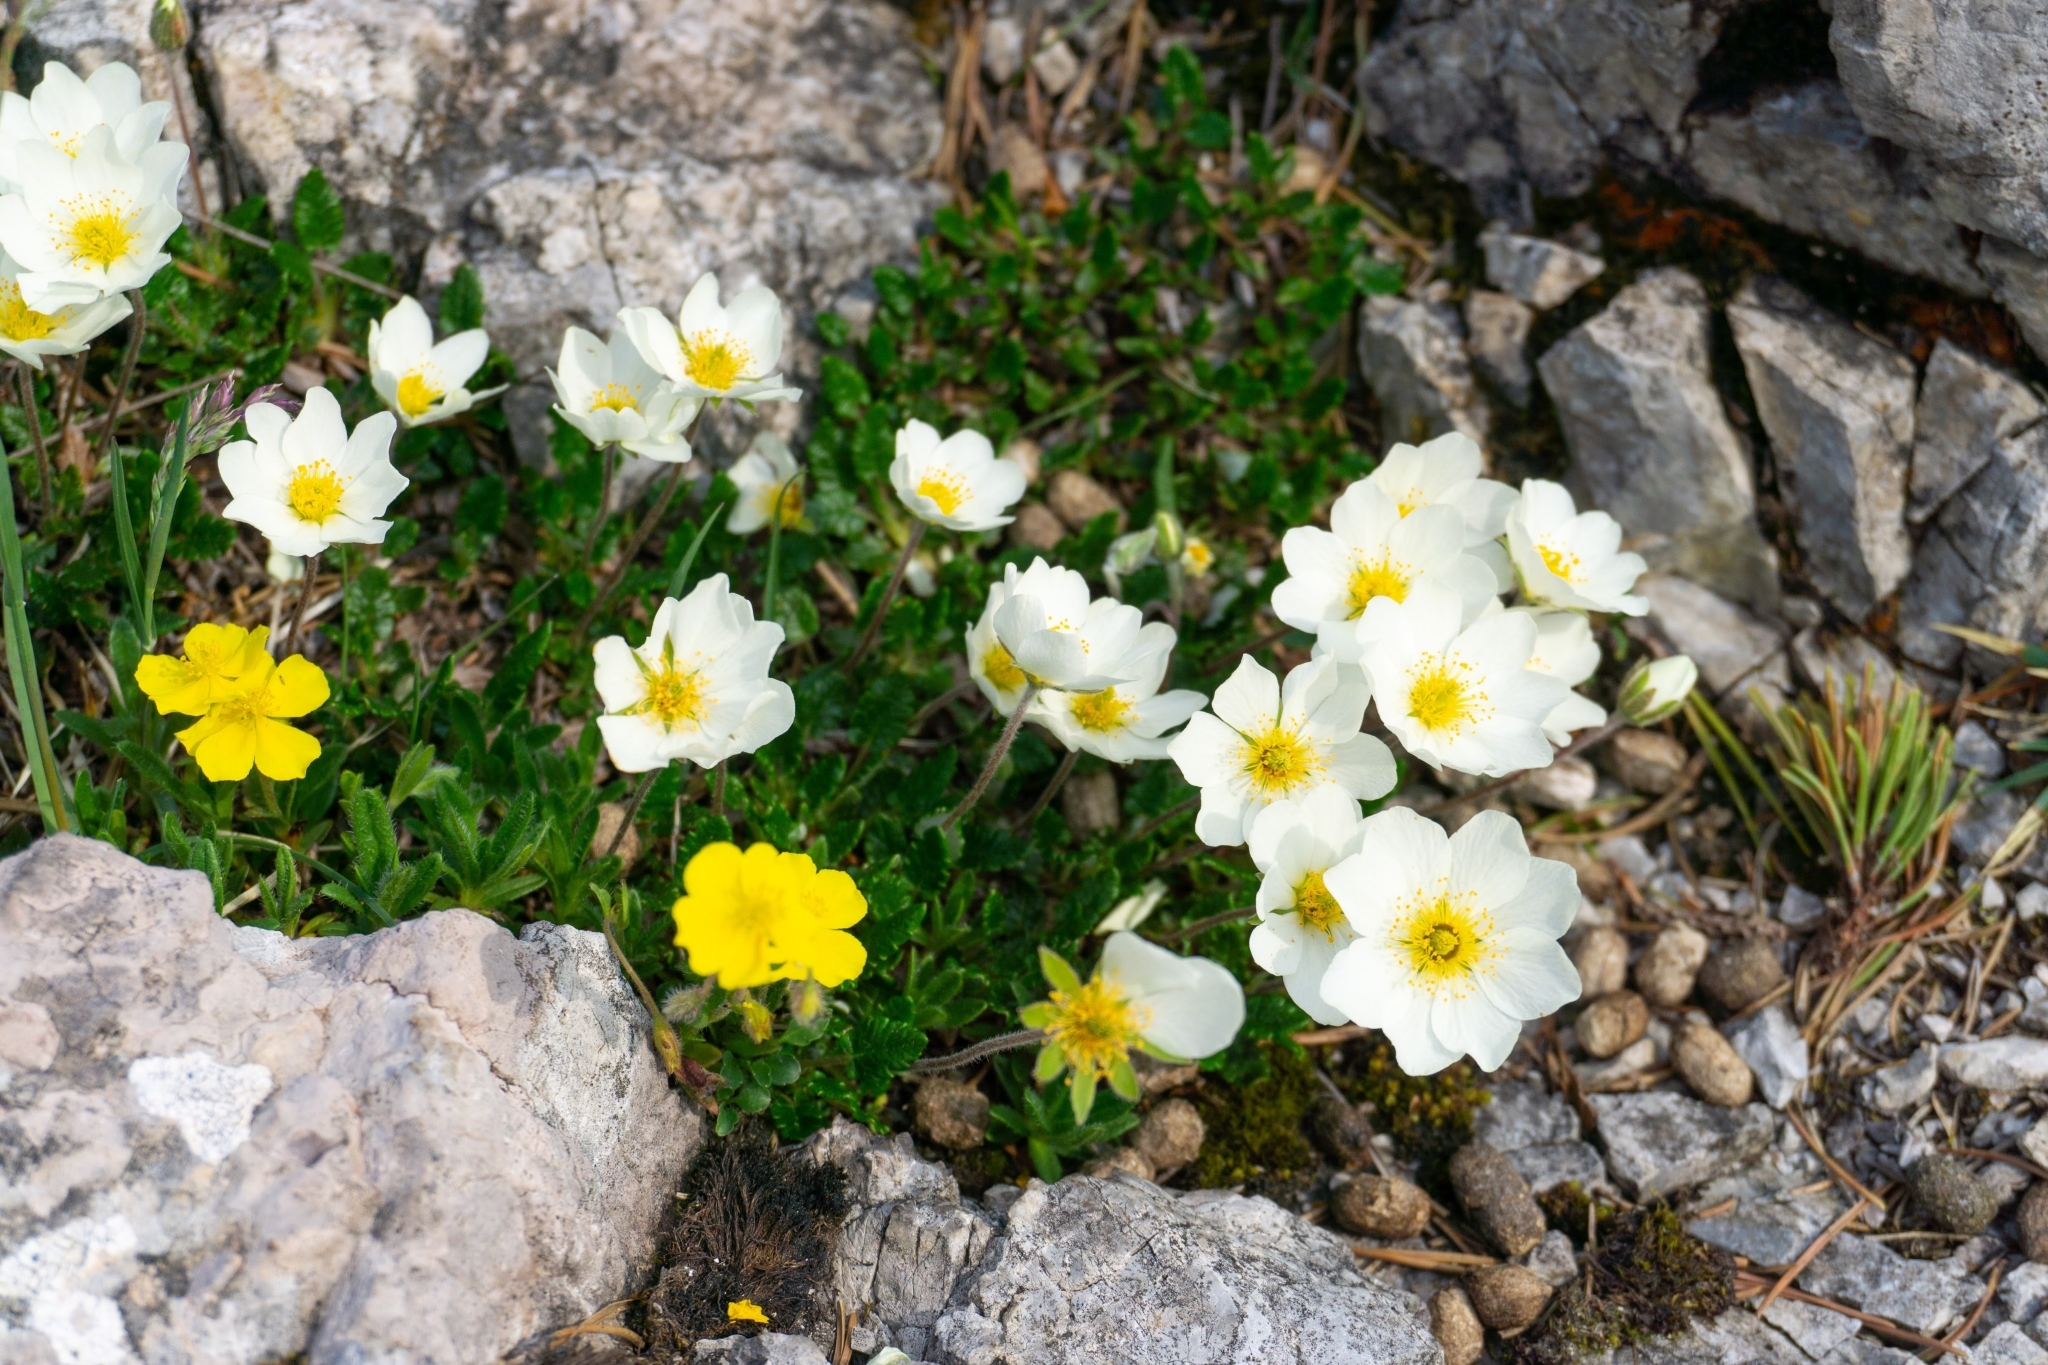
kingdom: Plantae
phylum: Tracheophyta
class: Magnoliopsida
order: Rosales
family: Rosaceae
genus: Dryas
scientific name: Dryas octopetala
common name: Eight-petal mountain-avens
